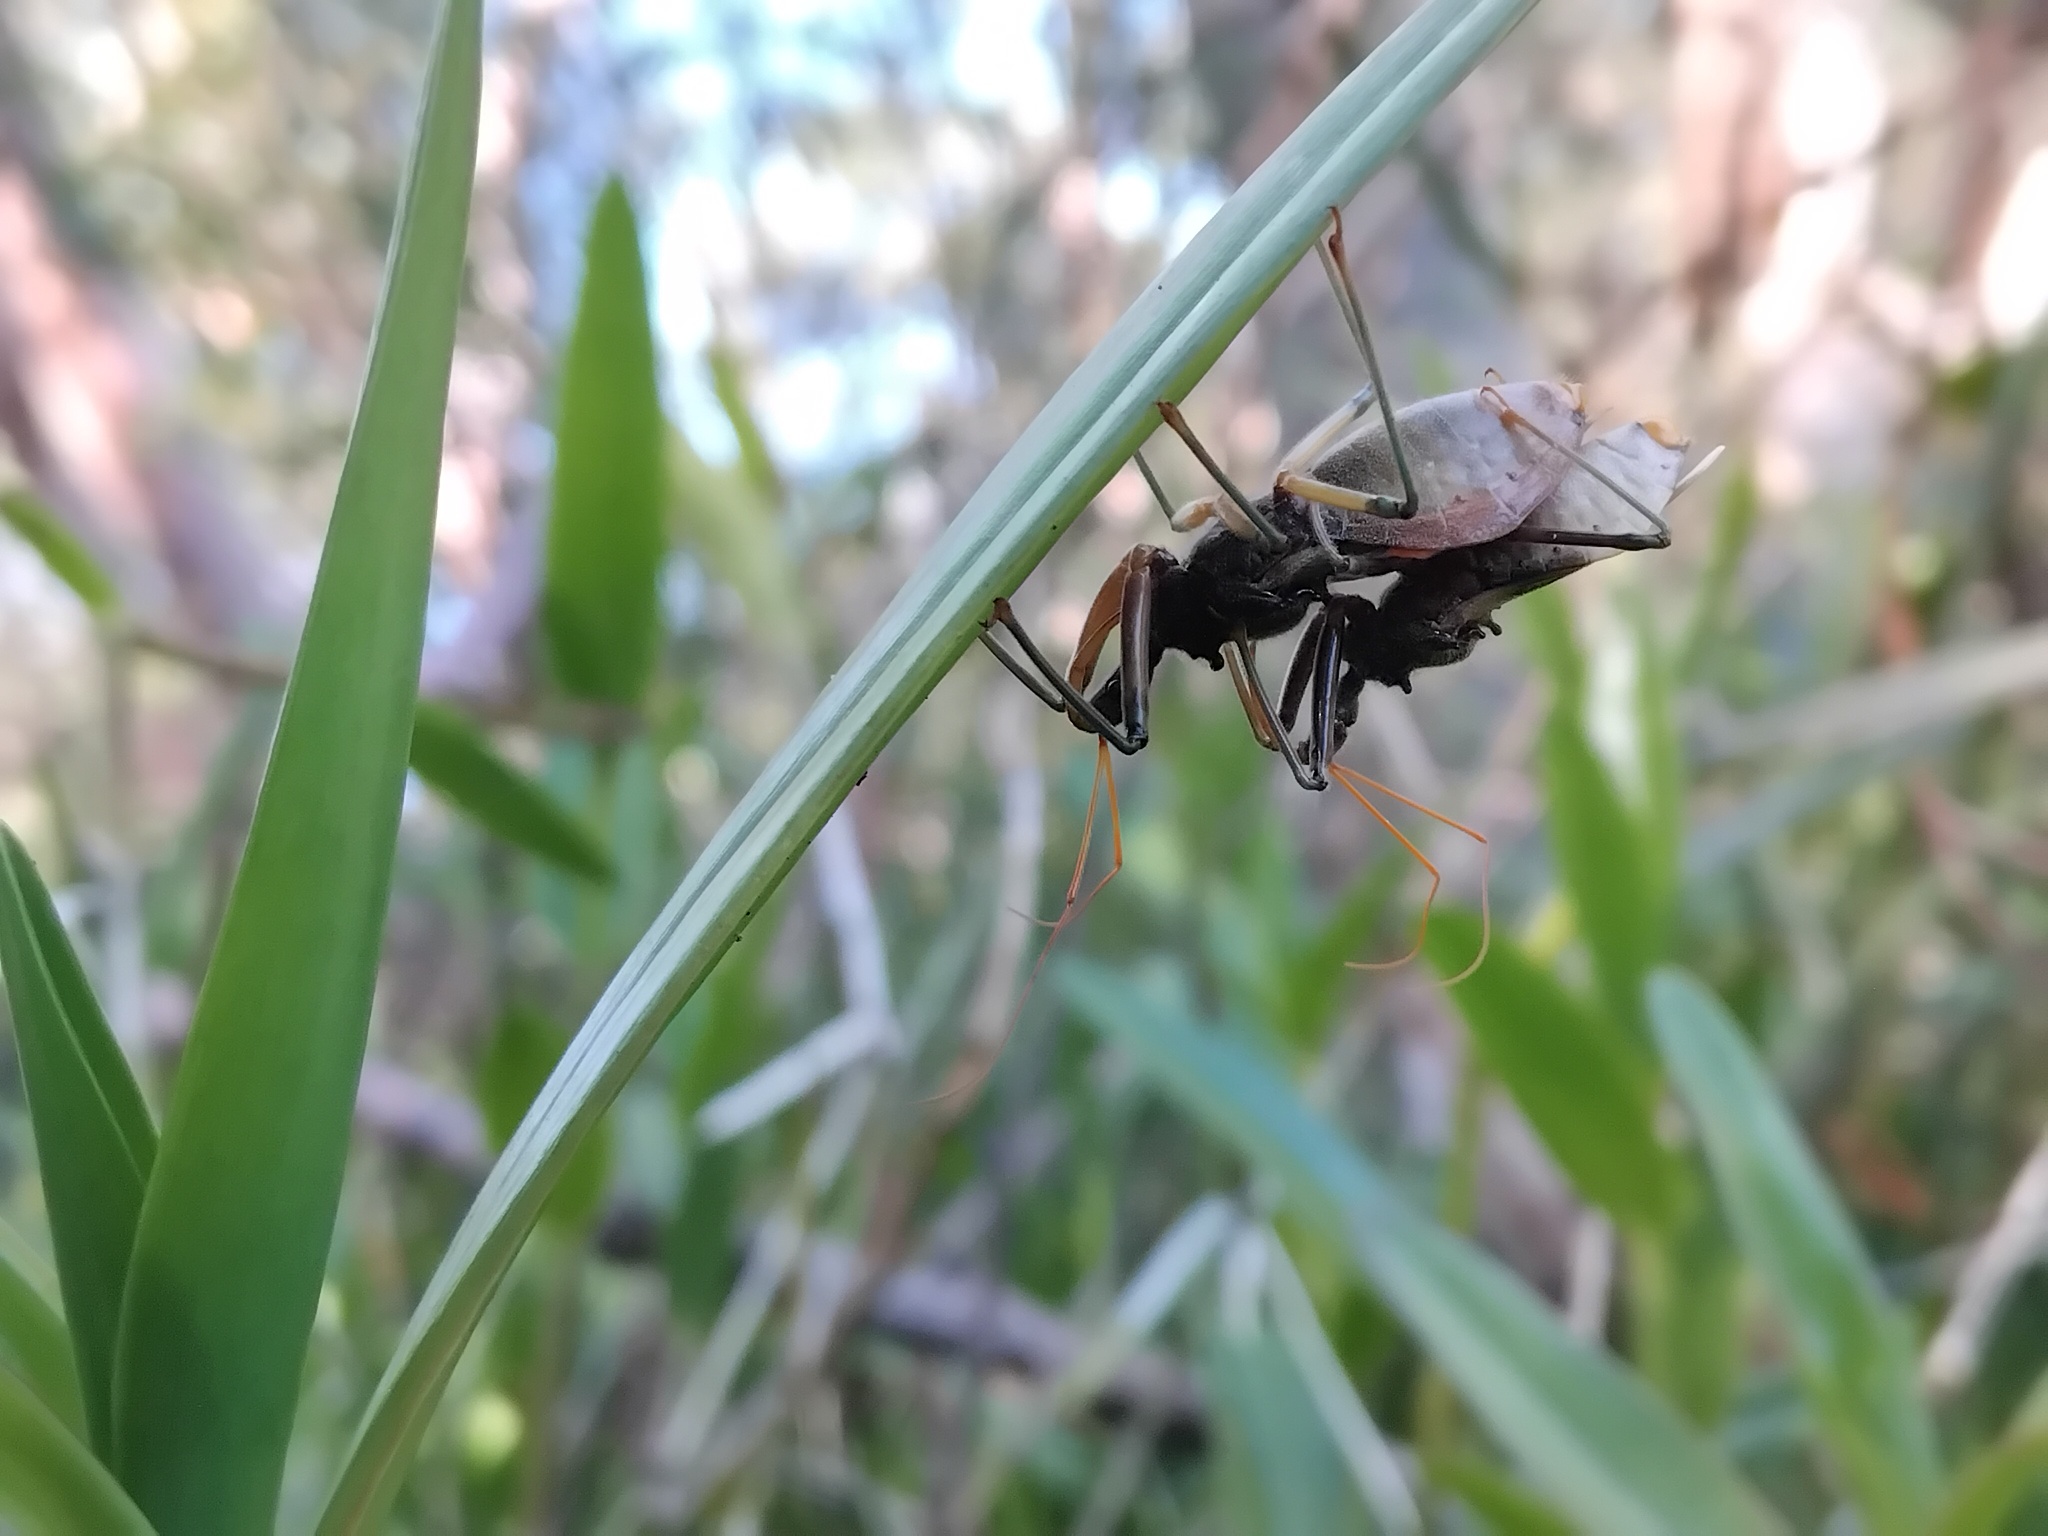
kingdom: Animalia
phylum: Arthropoda
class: Insecta
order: Hemiptera
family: Reduviidae
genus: Pristhesancus
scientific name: Pristhesancus plagipennis
